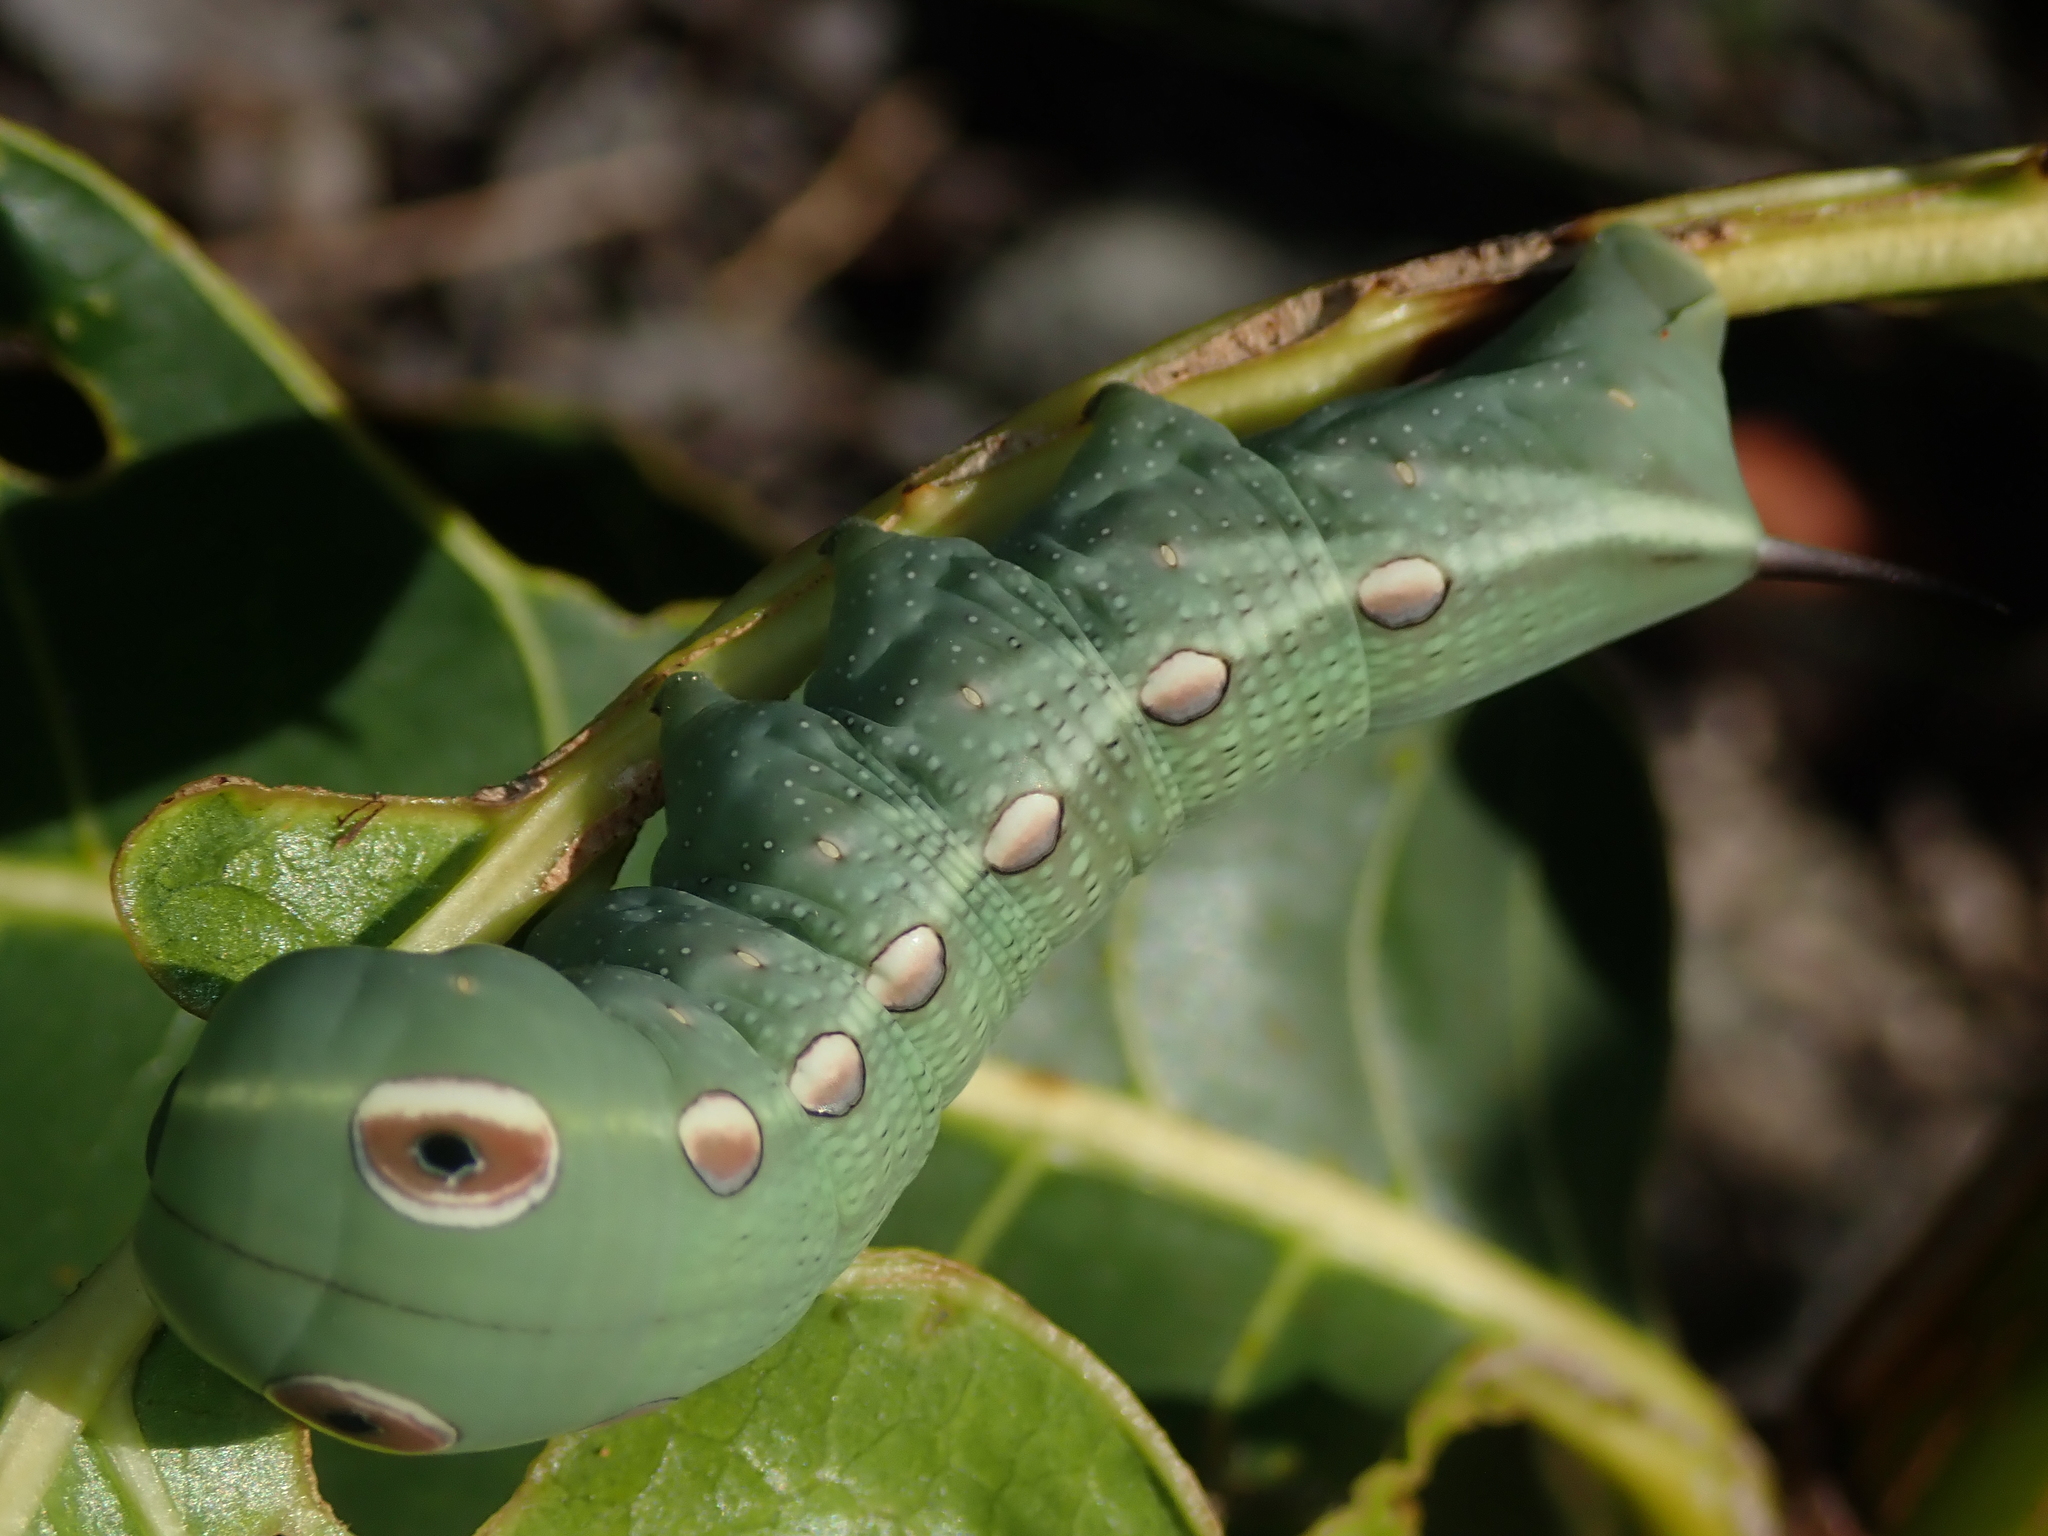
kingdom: Animalia
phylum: Arthropoda
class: Insecta
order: Lepidoptera
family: Sphingidae
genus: Xylophanes
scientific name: Xylophanes tersa
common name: Tersa sphinx
